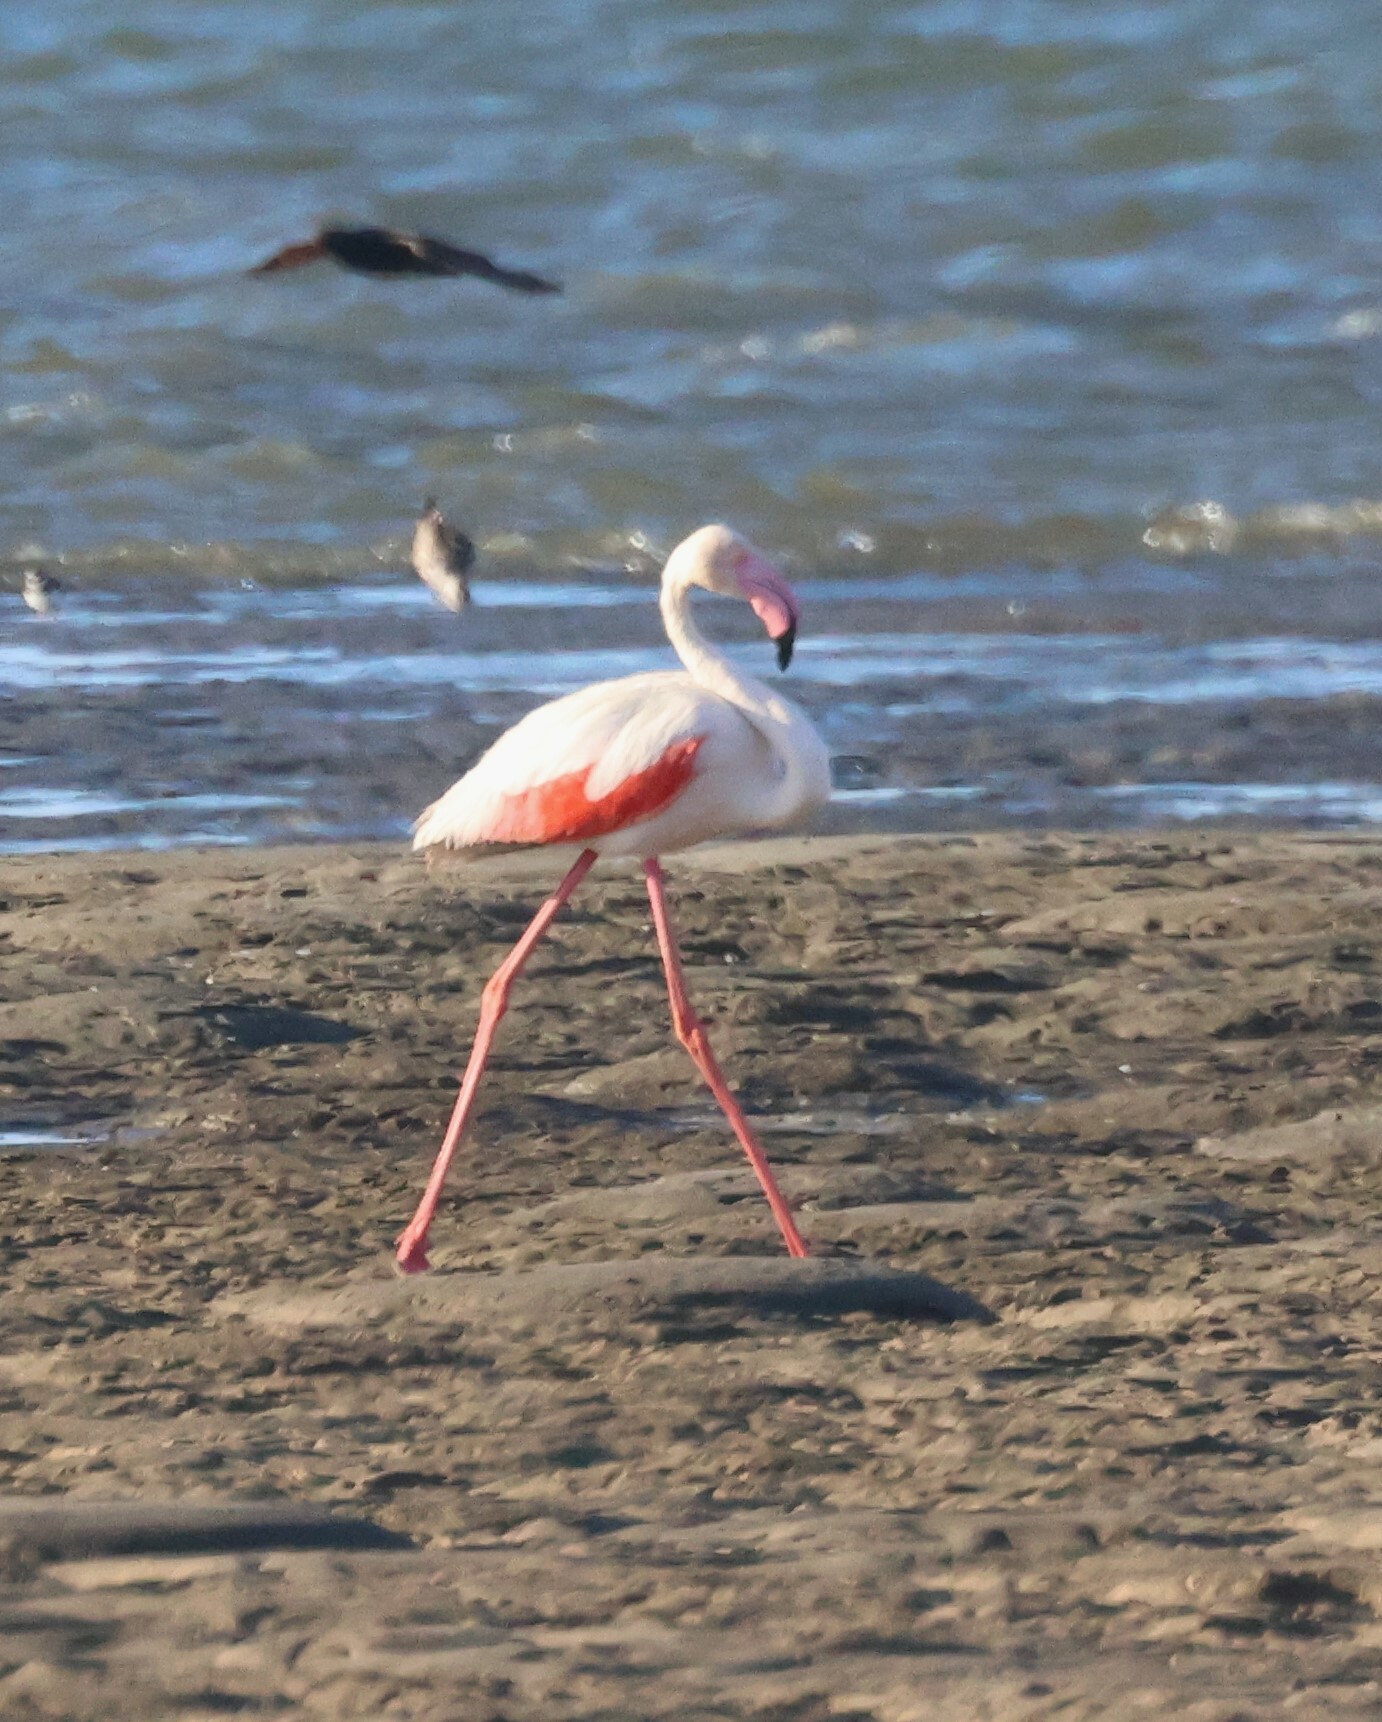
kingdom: Animalia
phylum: Chordata
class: Aves
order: Phoenicopteriformes
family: Phoenicopteridae
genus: Phoenicopterus
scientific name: Phoenicopterus roseus
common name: Greater flamingo
